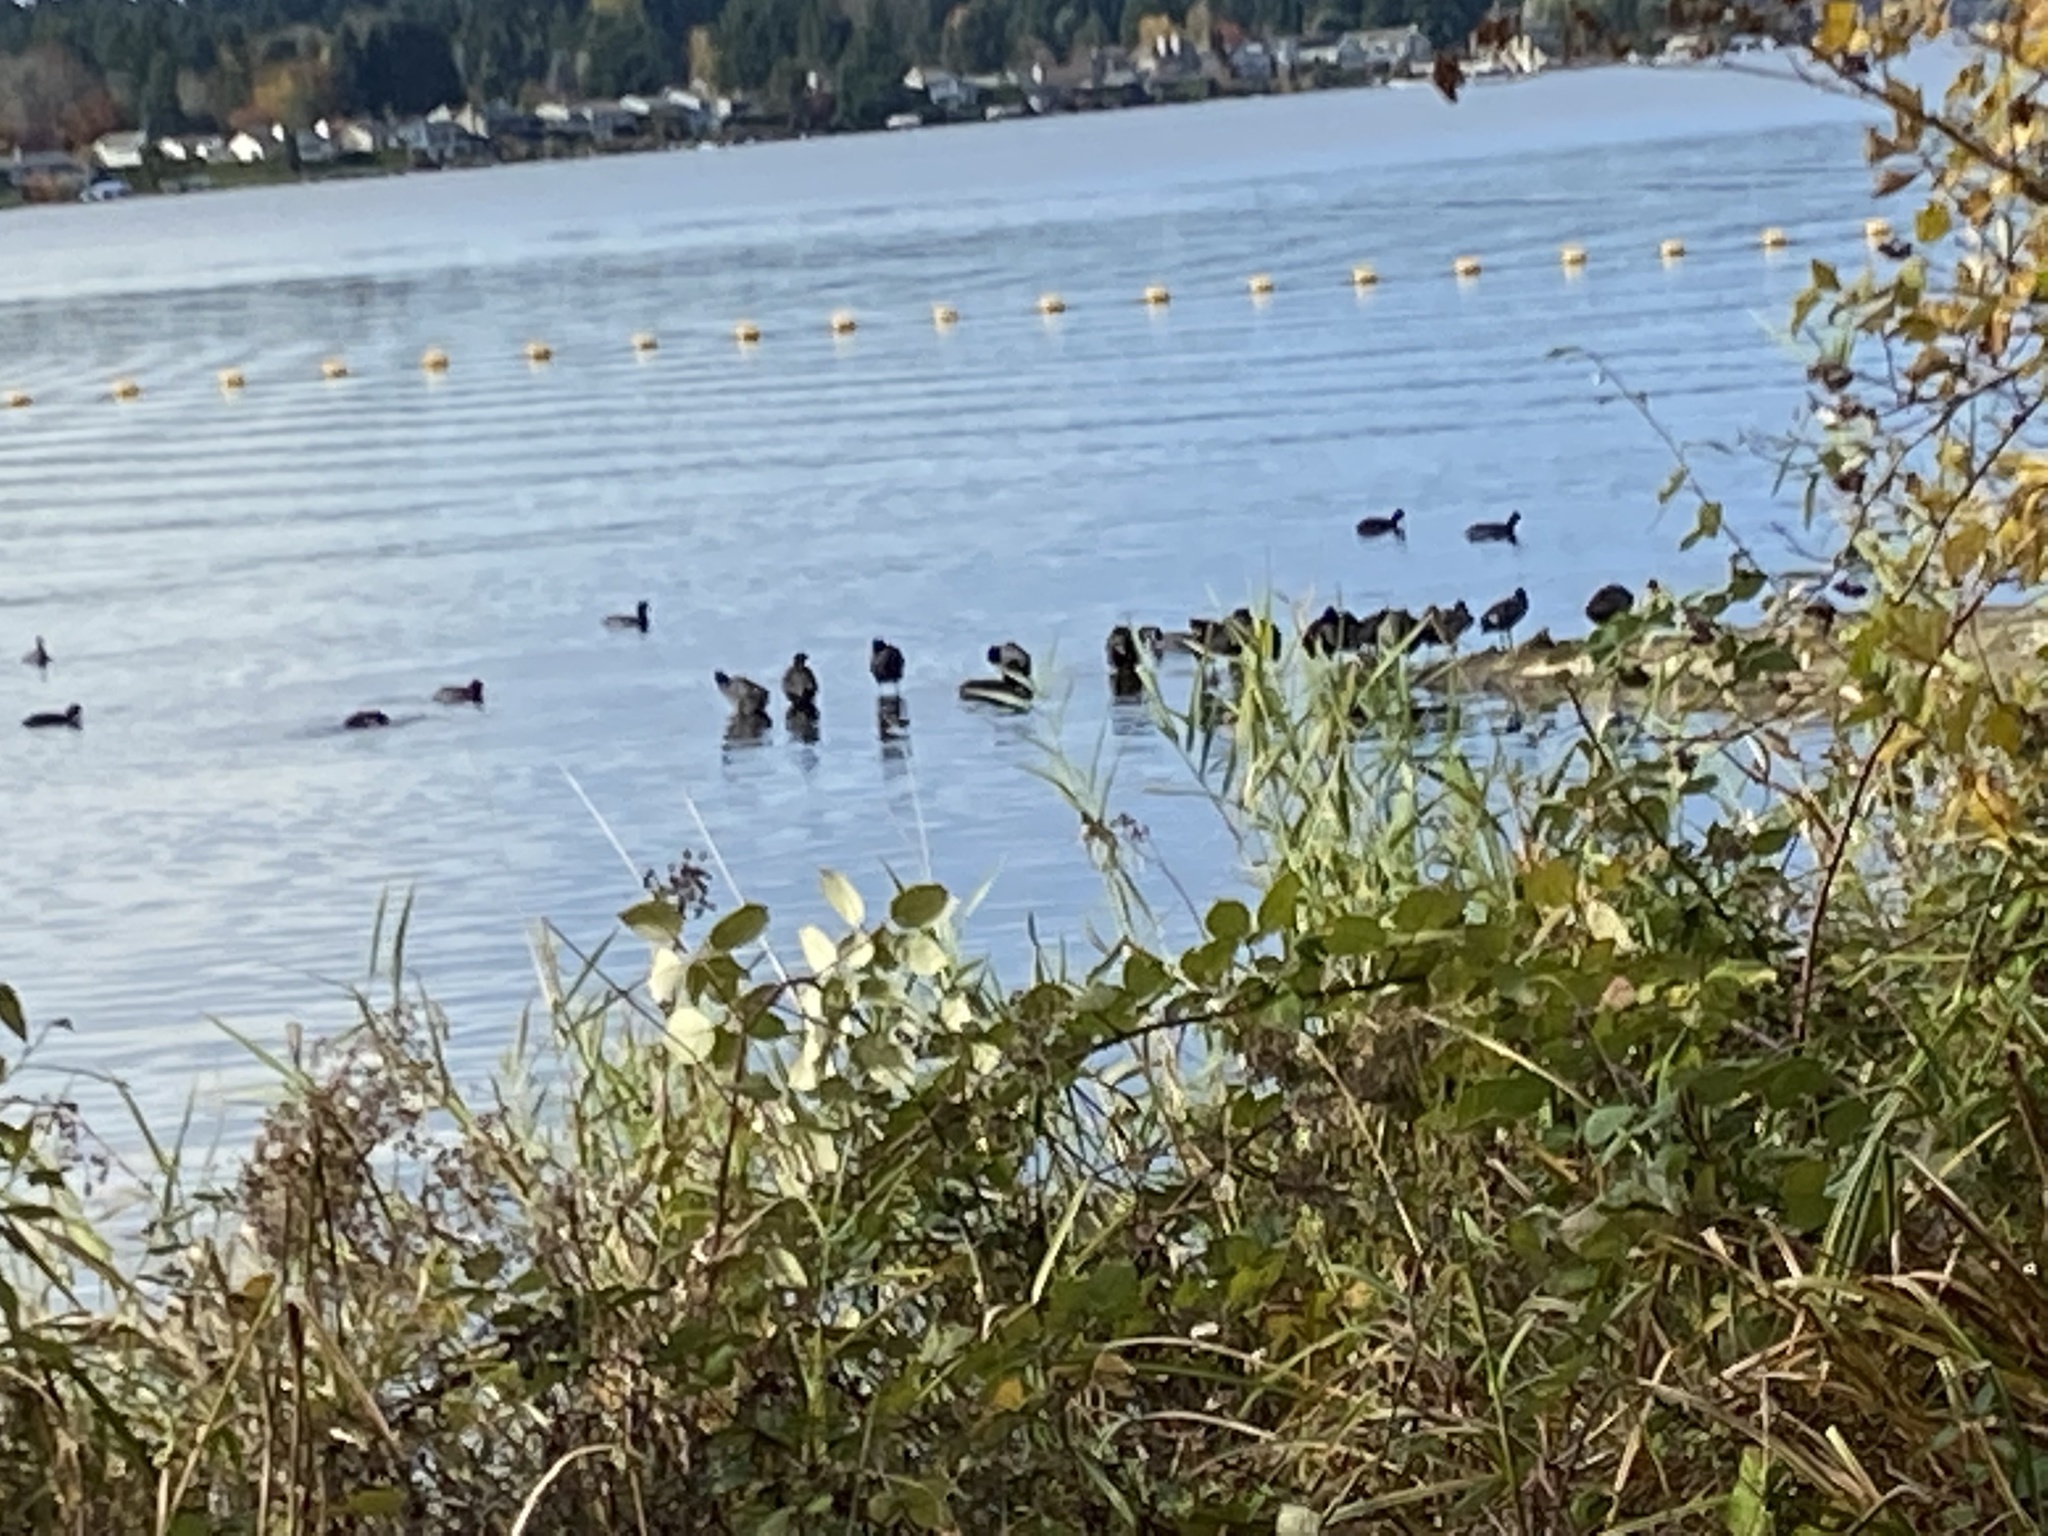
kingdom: Animalia
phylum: Chordata
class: Aves
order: Gruiformes
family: Rallidae
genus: Fulica
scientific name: Fulica americana
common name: American coot
